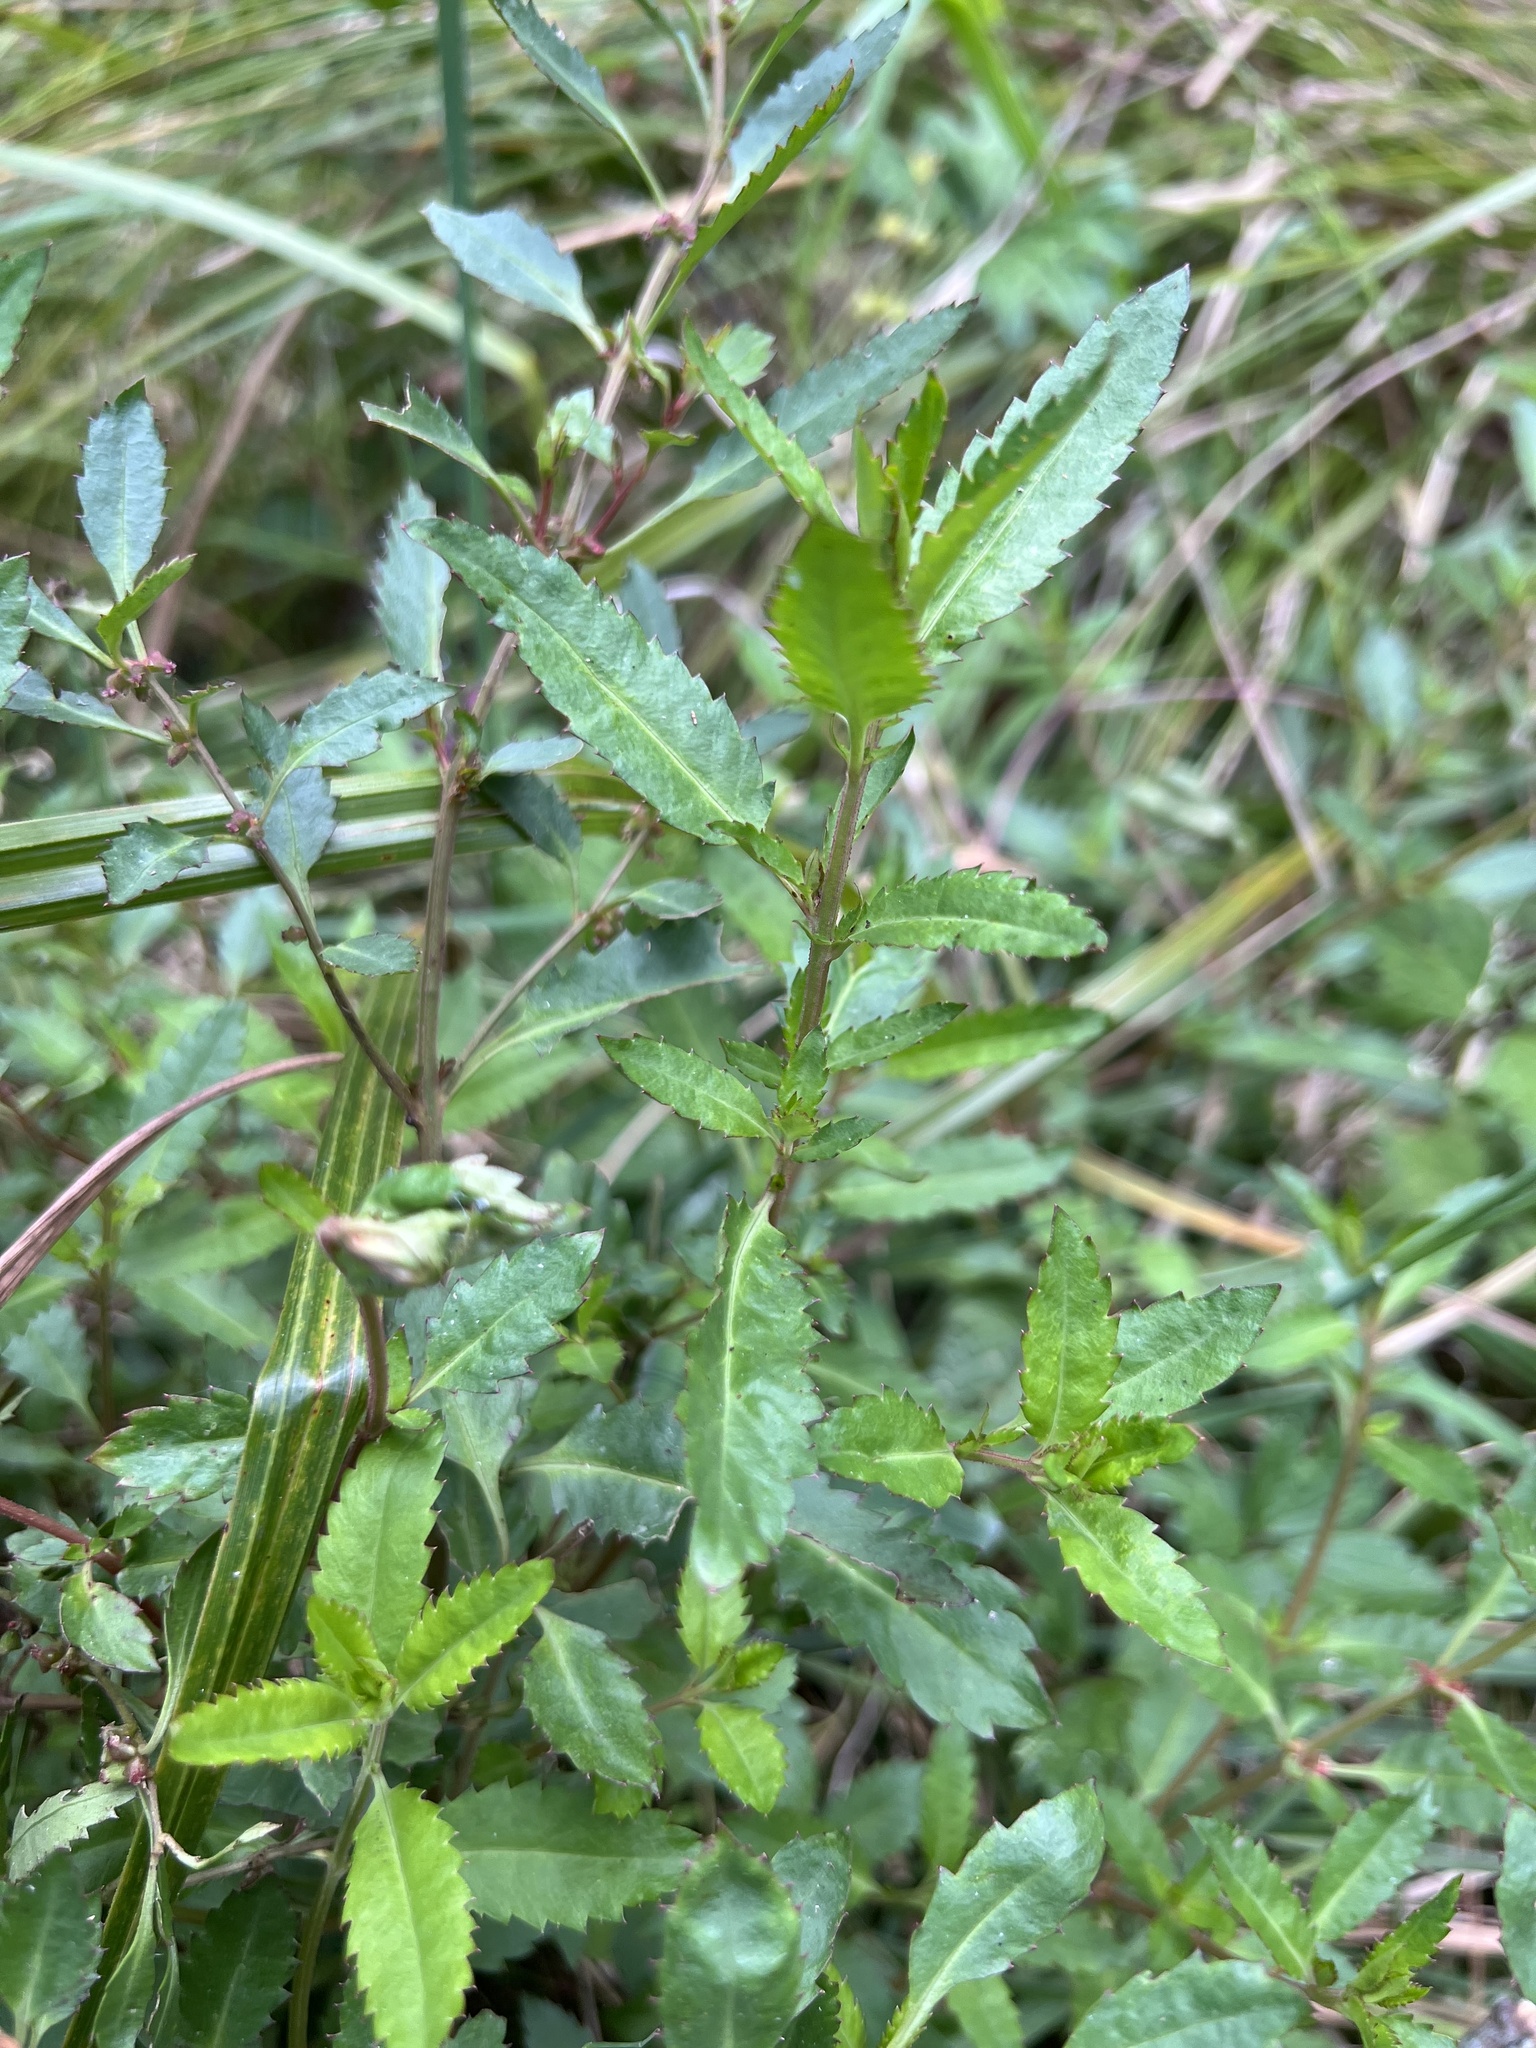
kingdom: Plantae
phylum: Tracheophyta
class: Magnoliopsida
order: Saxifragales
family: Haloragaceae
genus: Haloragis
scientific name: Haloragis erecta
